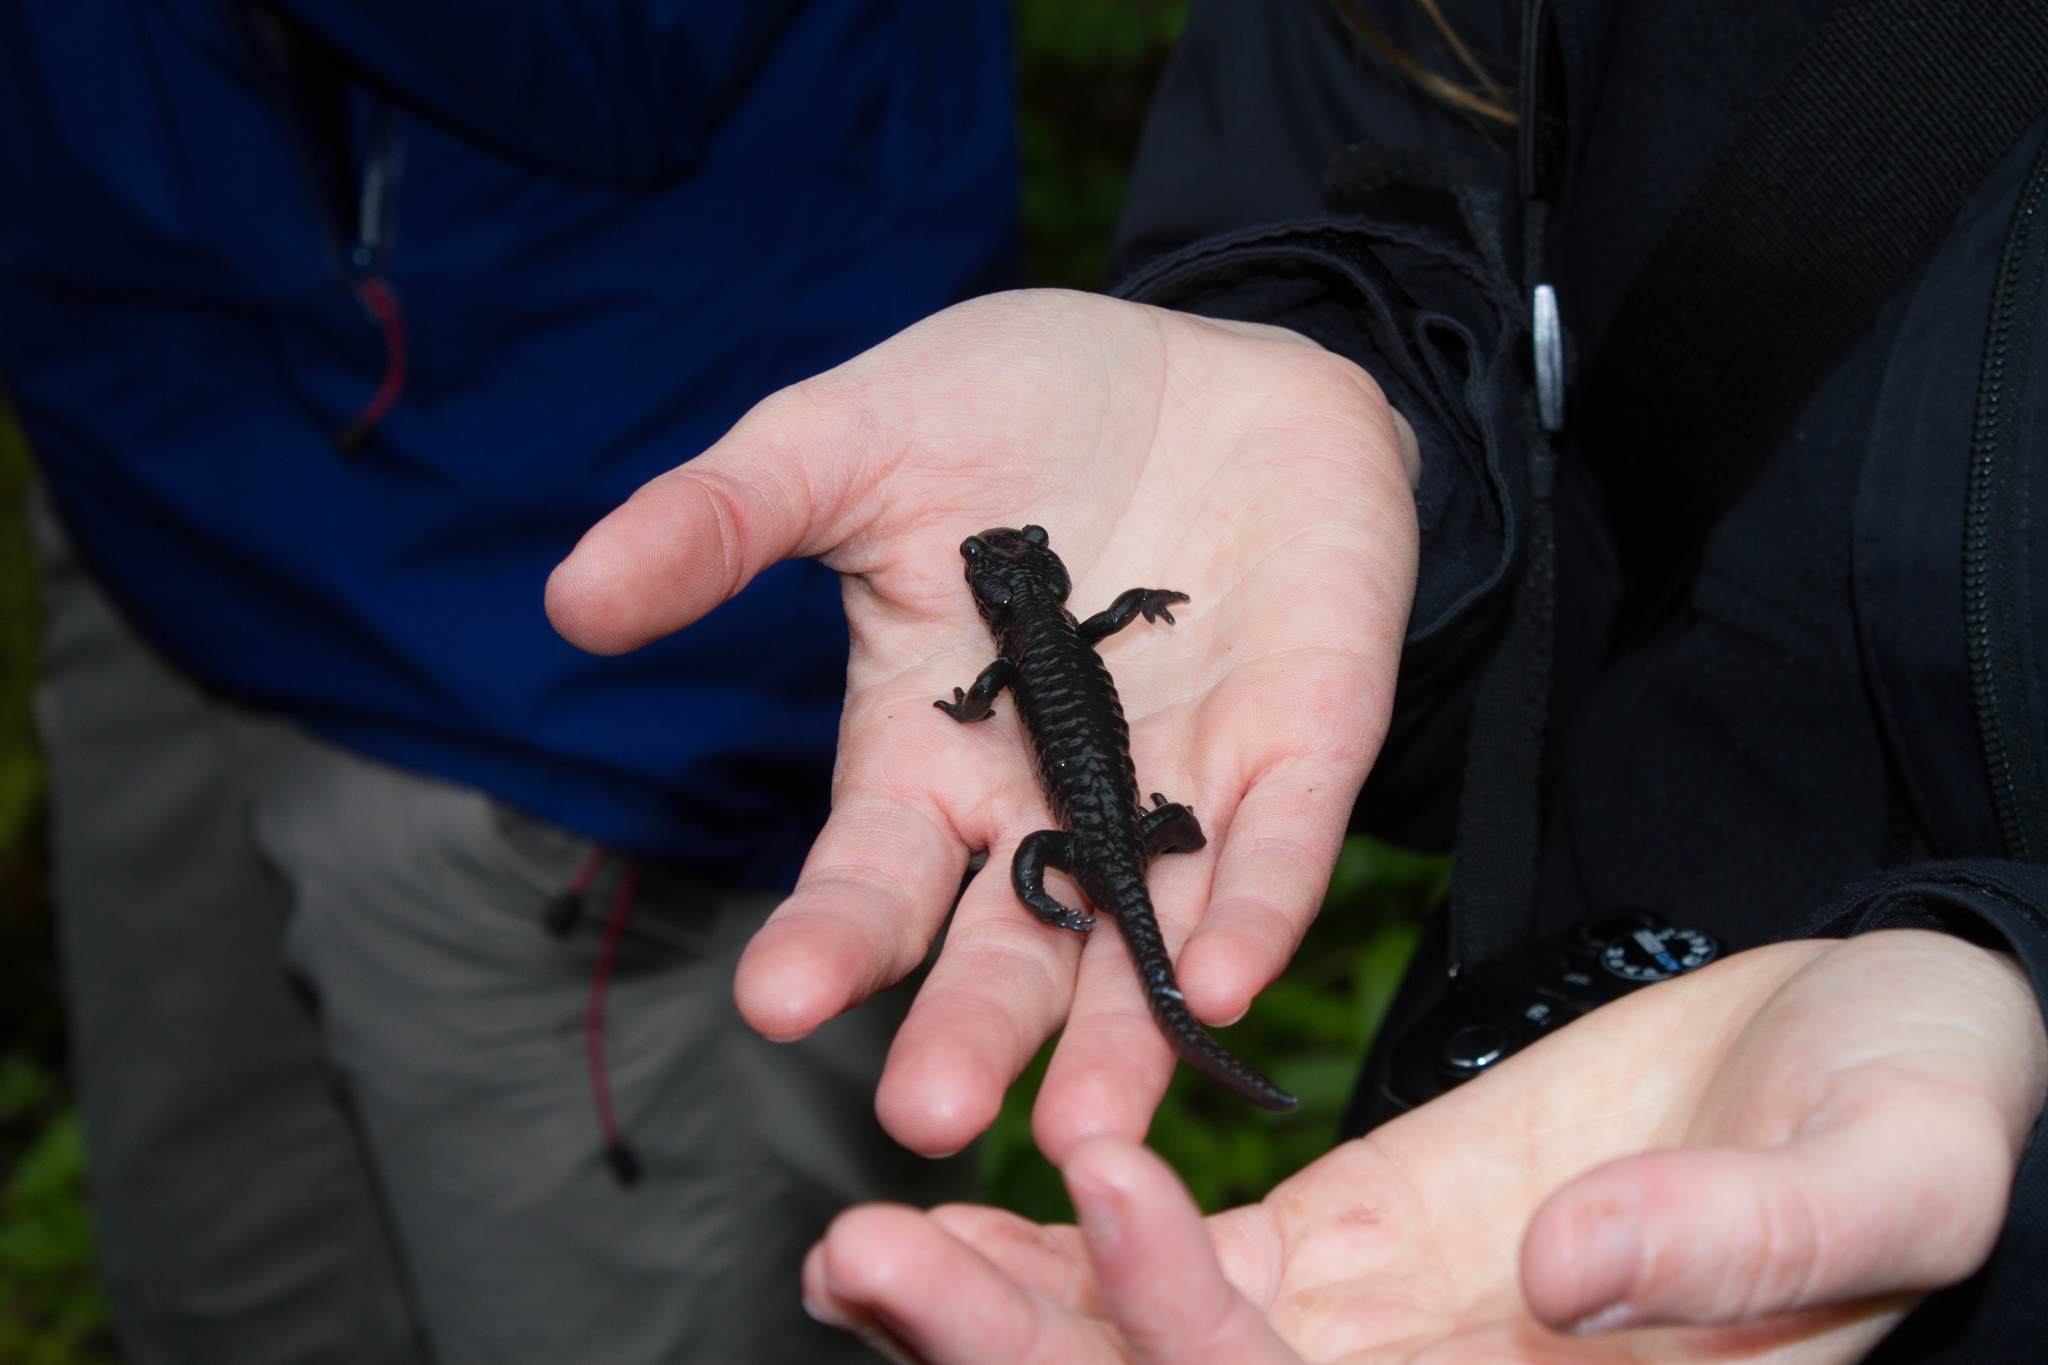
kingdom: Animalia
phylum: Chordata
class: Amphibia
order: Caudata
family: Salamandridae
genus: Salamandra
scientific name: Salamandra atra
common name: Alpine salamander
